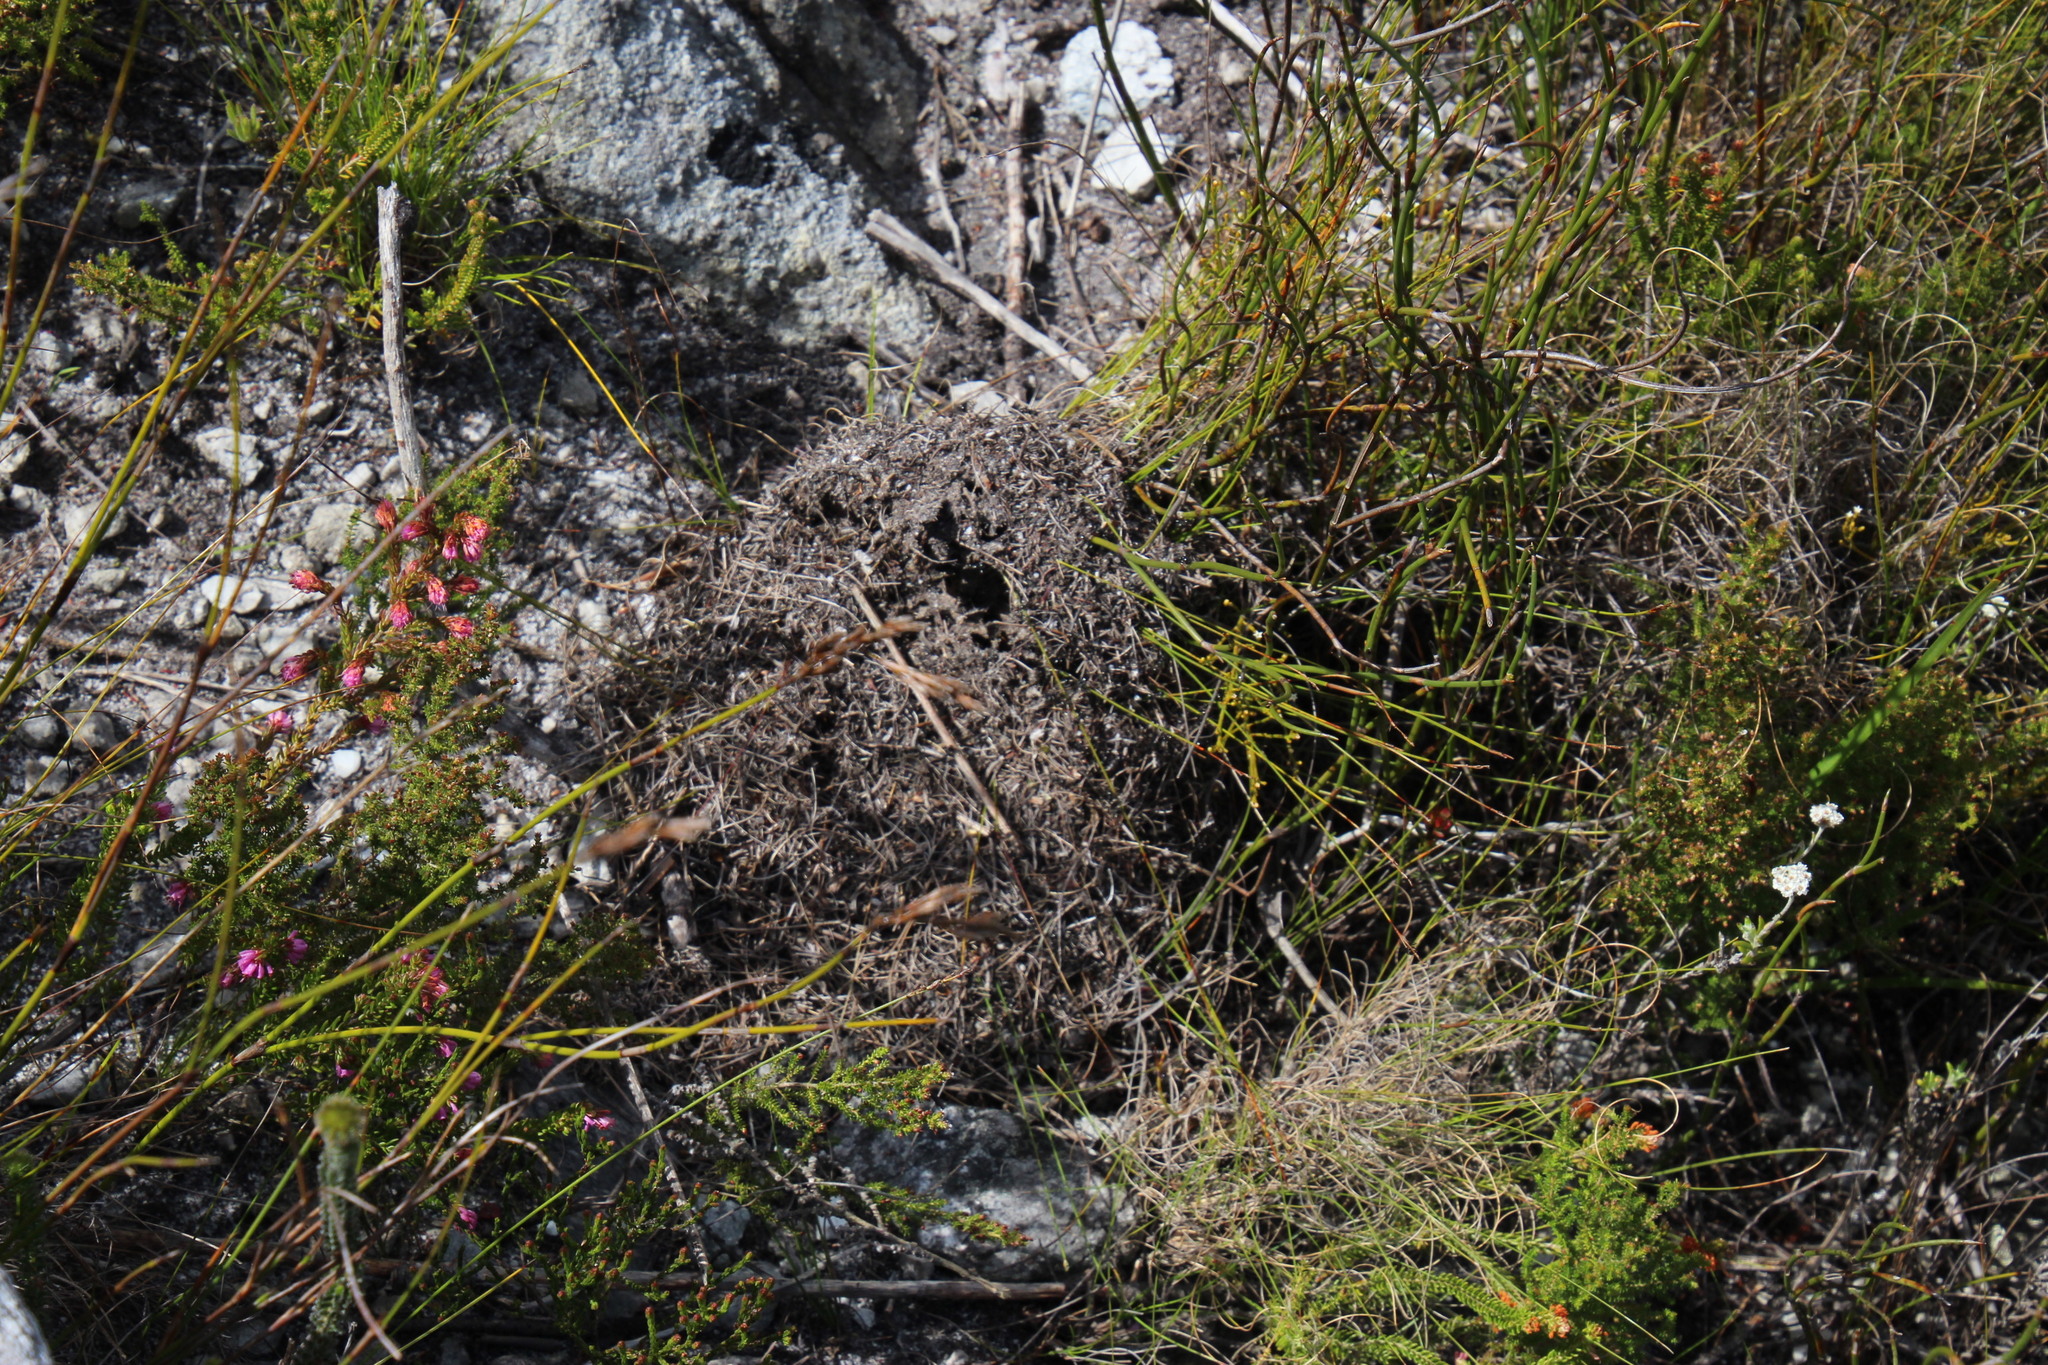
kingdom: Animalia
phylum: Arthropoda
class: Insecta
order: Hymenoptera
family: Formicidae
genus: Myrmicaria
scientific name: Myrmicaria nigra
